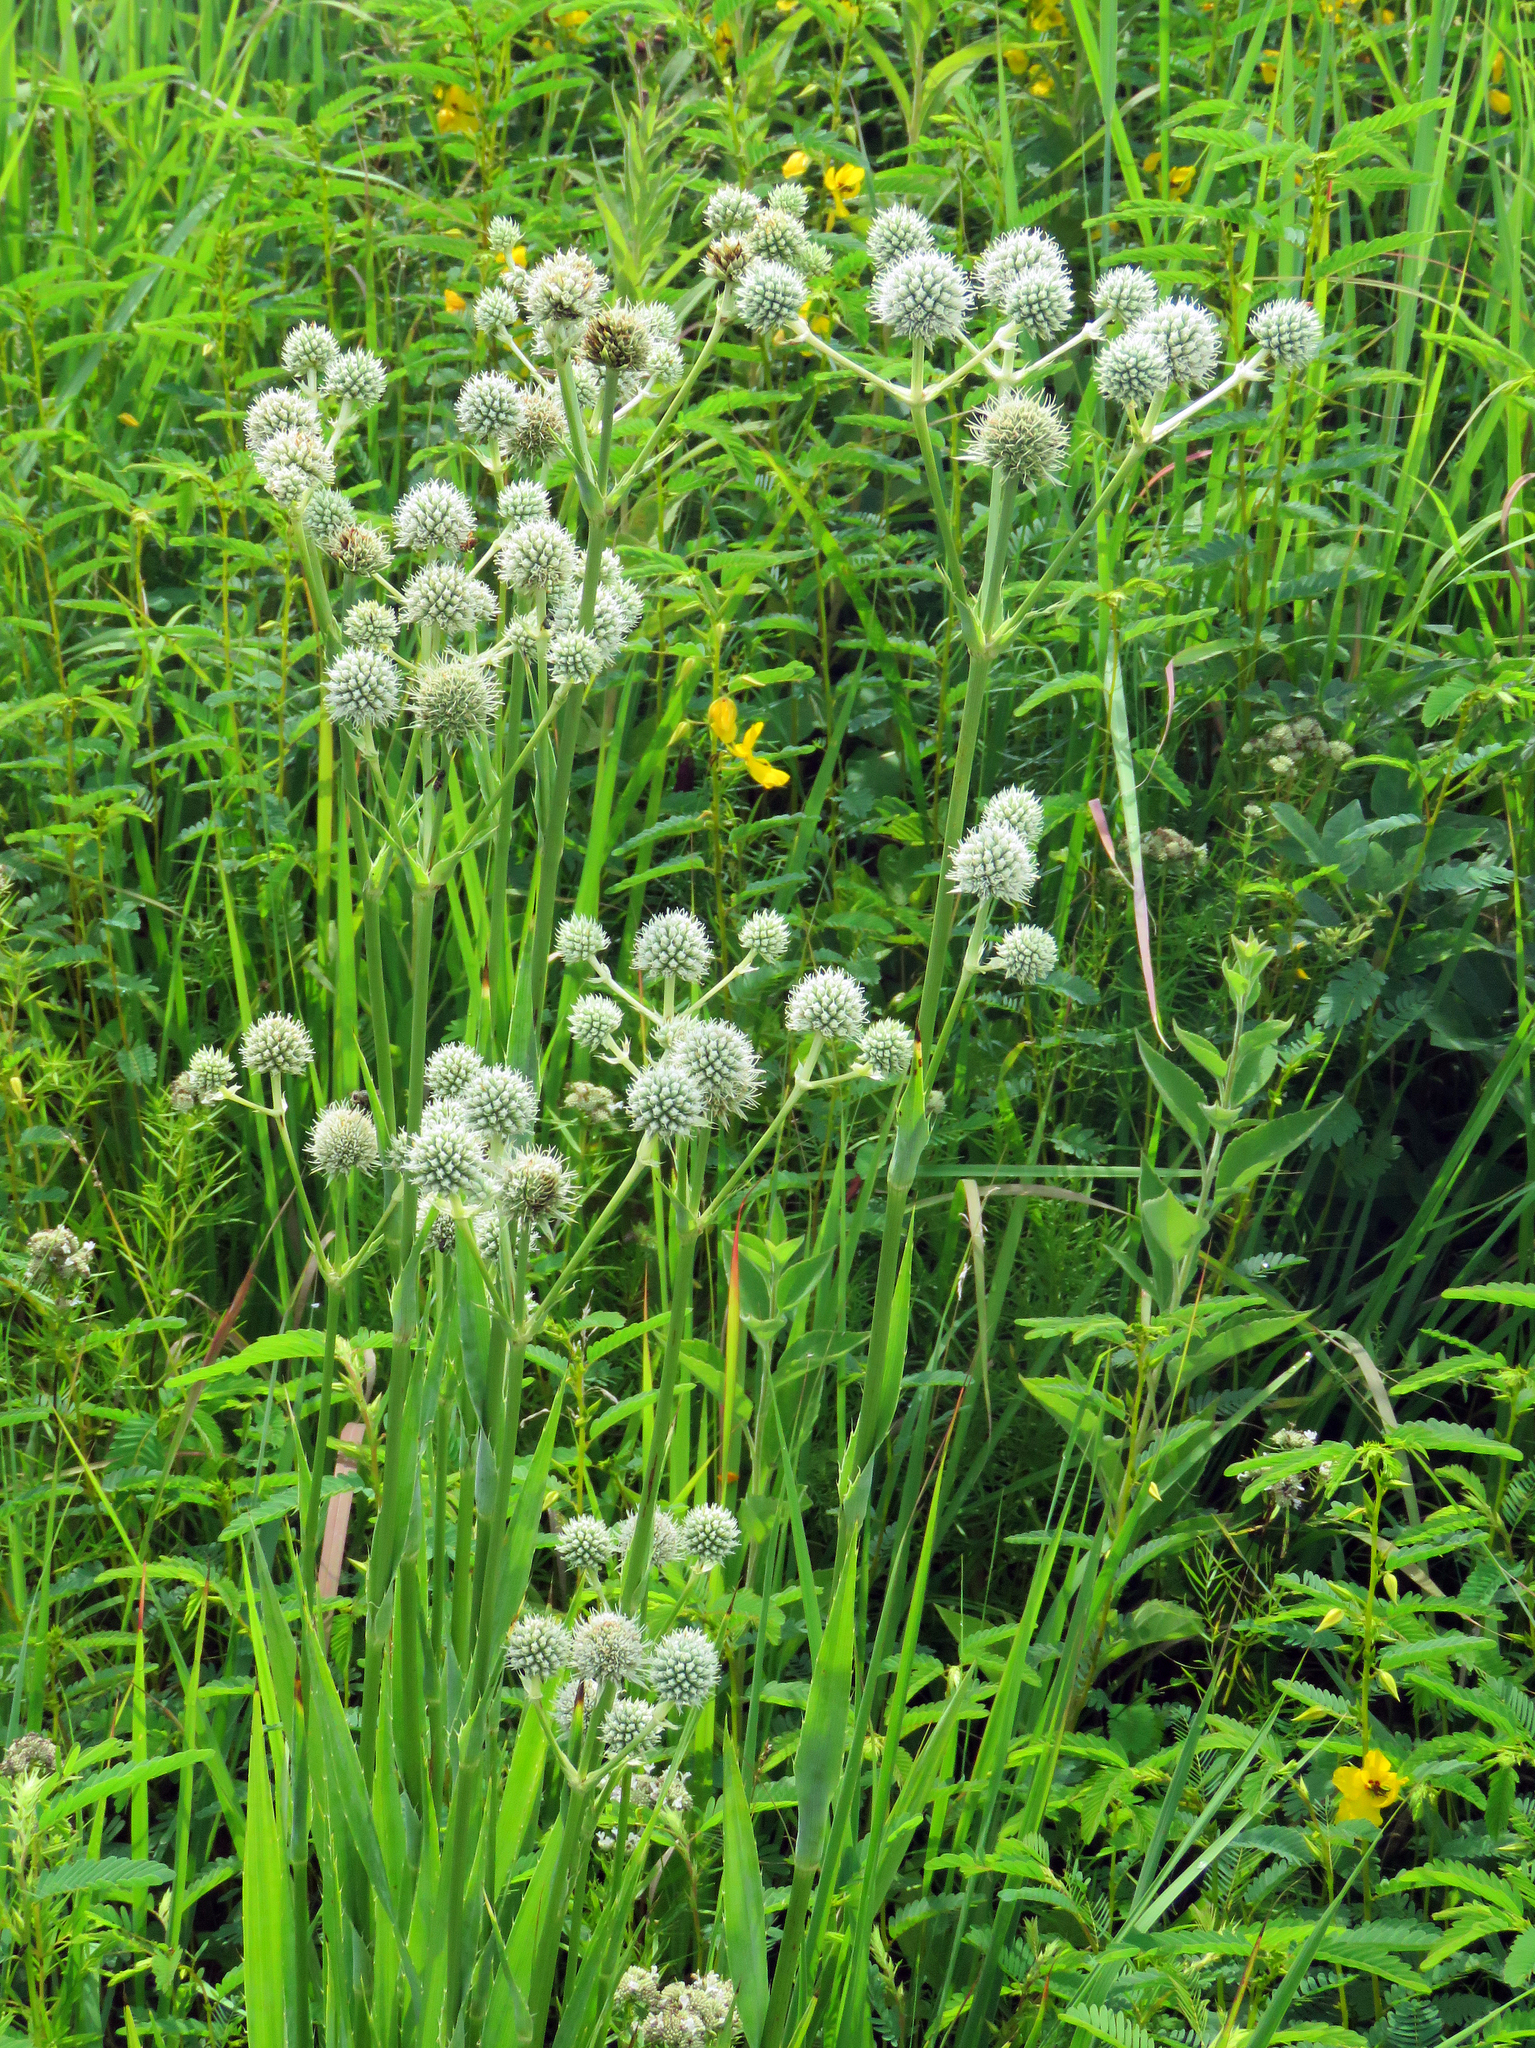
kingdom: Plantae
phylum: Tracheophyta
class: Magnoliopsida
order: Apiales
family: Apiaceae
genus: Eryngium
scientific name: Eryngium yuccifolium
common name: Button eryngo
